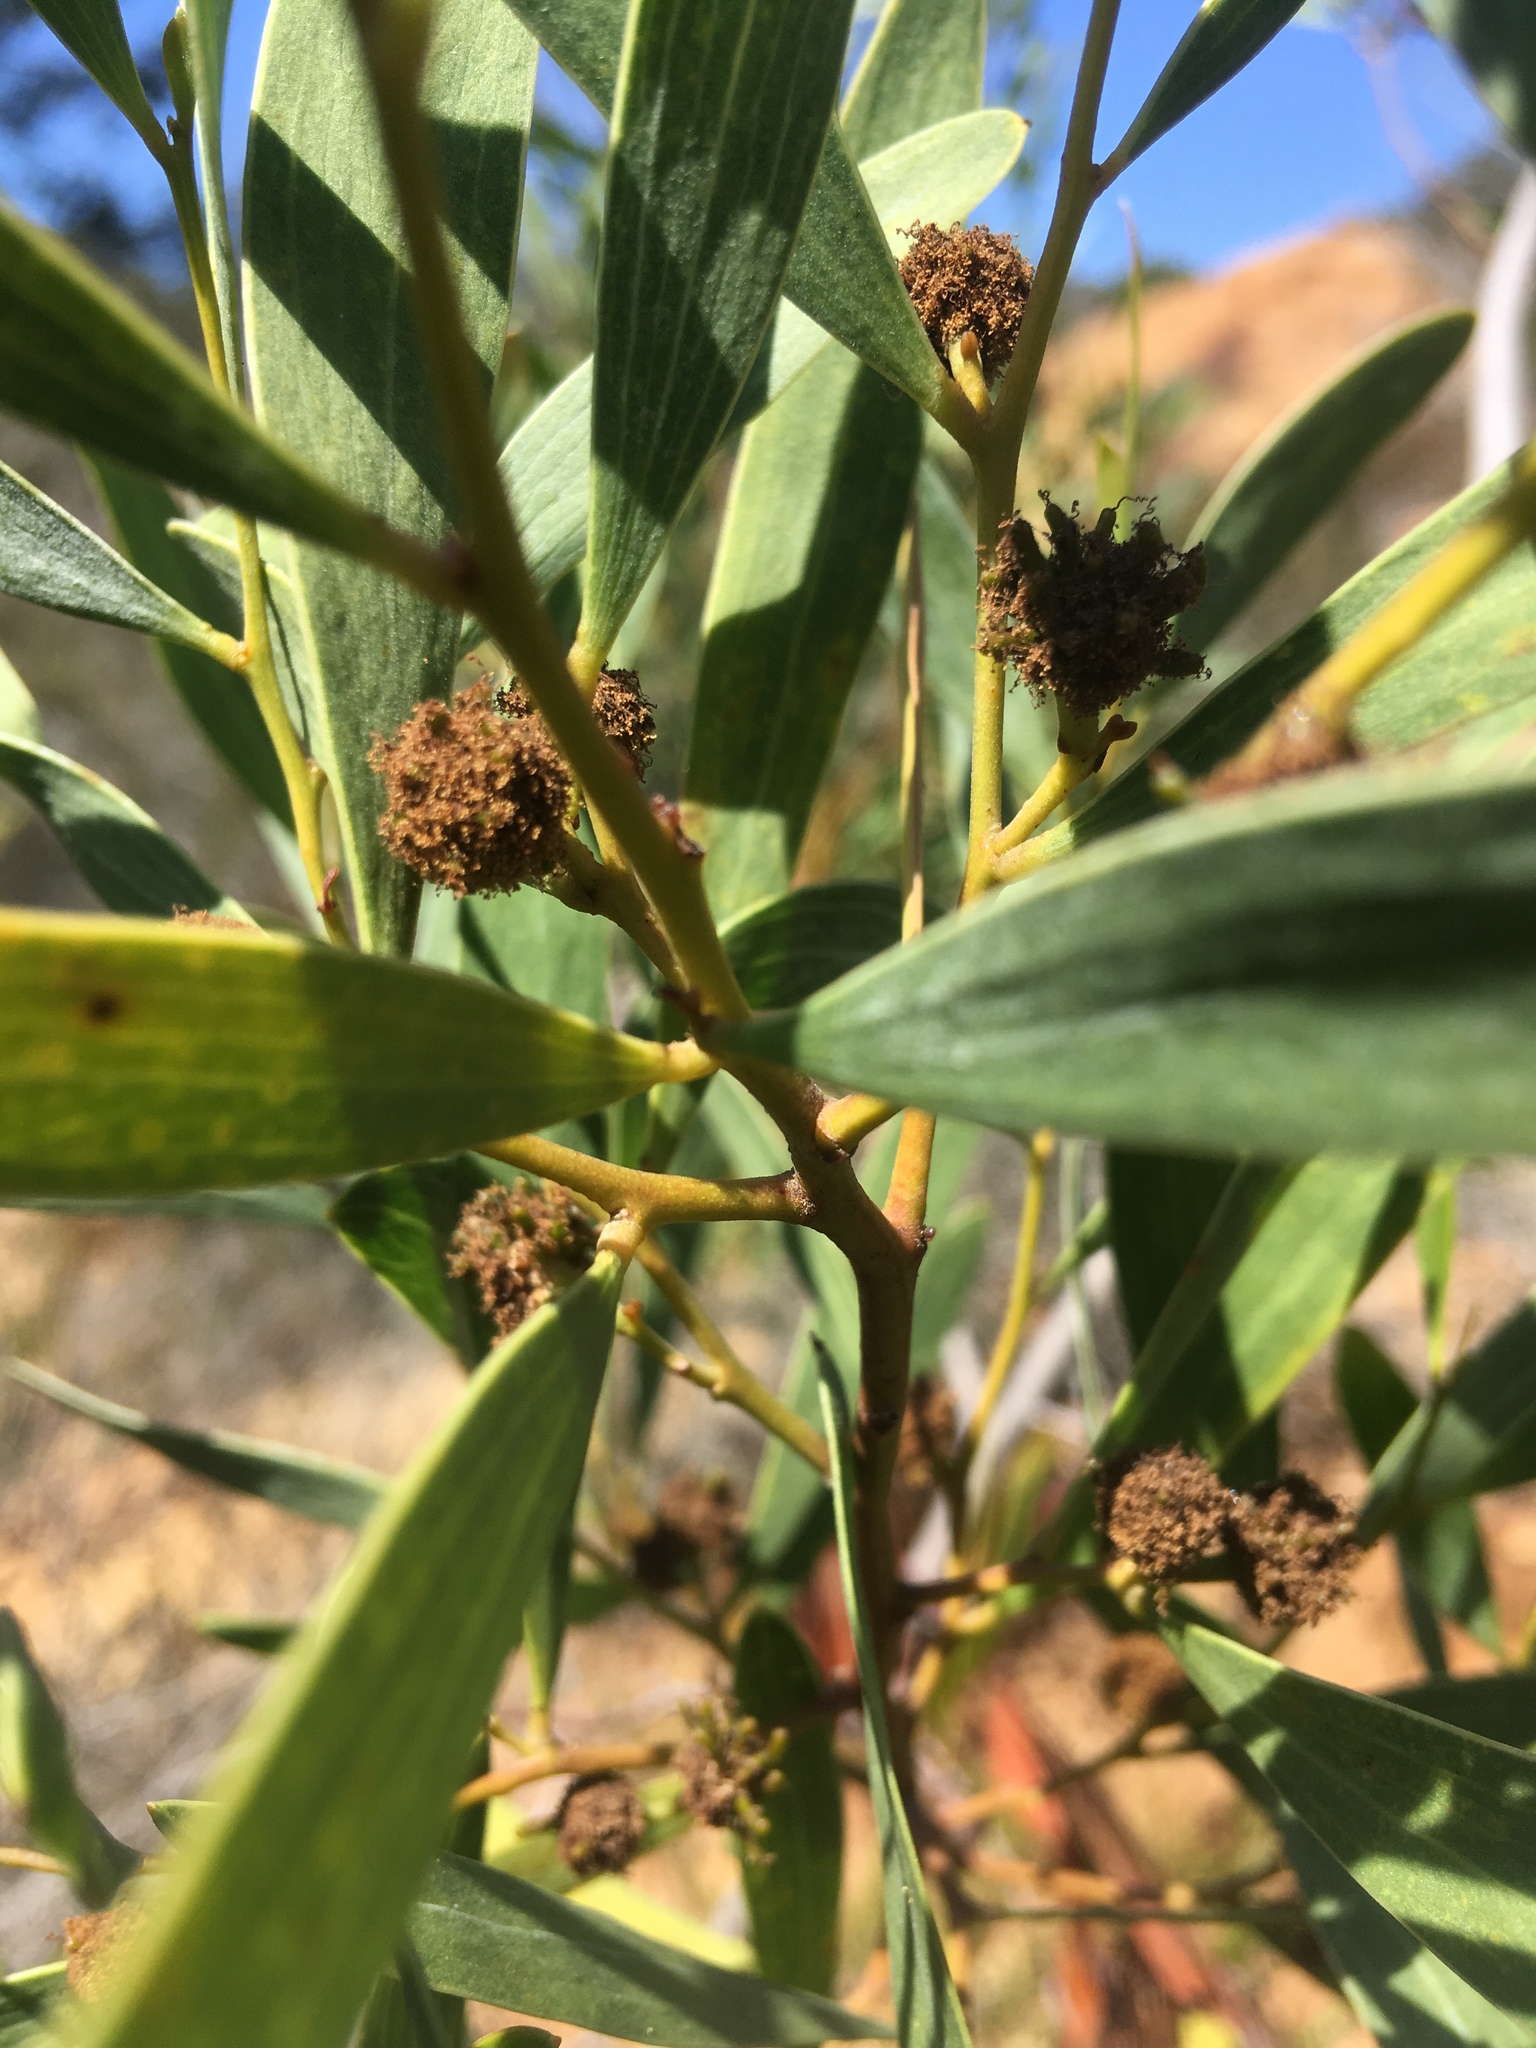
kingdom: Plantae
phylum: Tracheophyta
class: Magnoliopsida
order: Fabales
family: Fabaceae
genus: Acacia
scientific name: Acacia cyclops
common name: Coastal wattle
